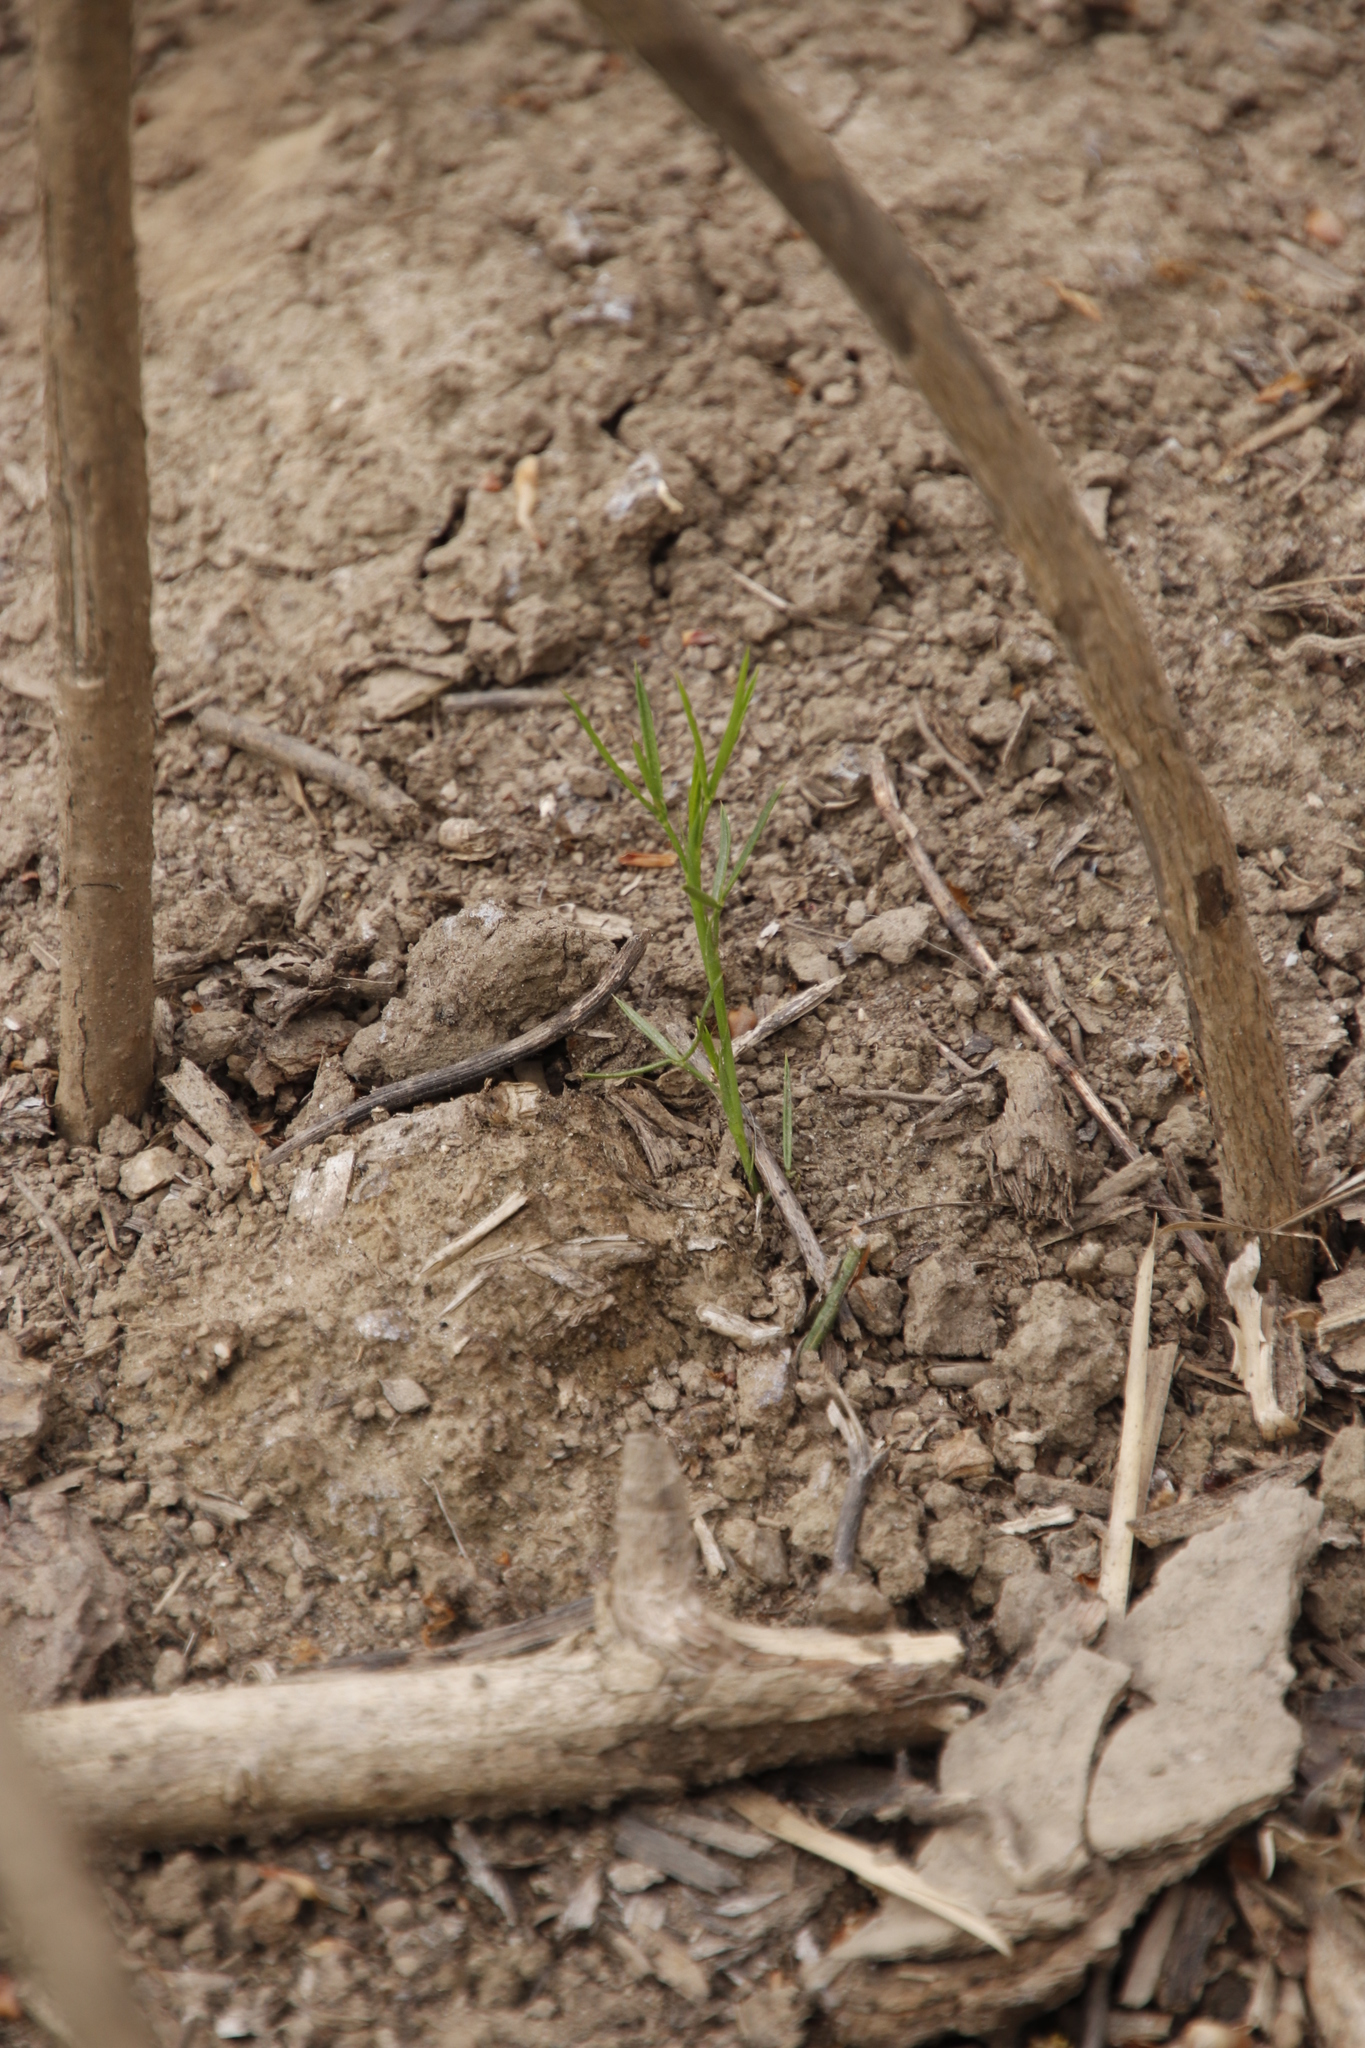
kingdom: Plantae
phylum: Tracheophyta
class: Magnoliopsida
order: Fabales
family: Fabaceae
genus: Psoralea
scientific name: Psoralea fascicularis
